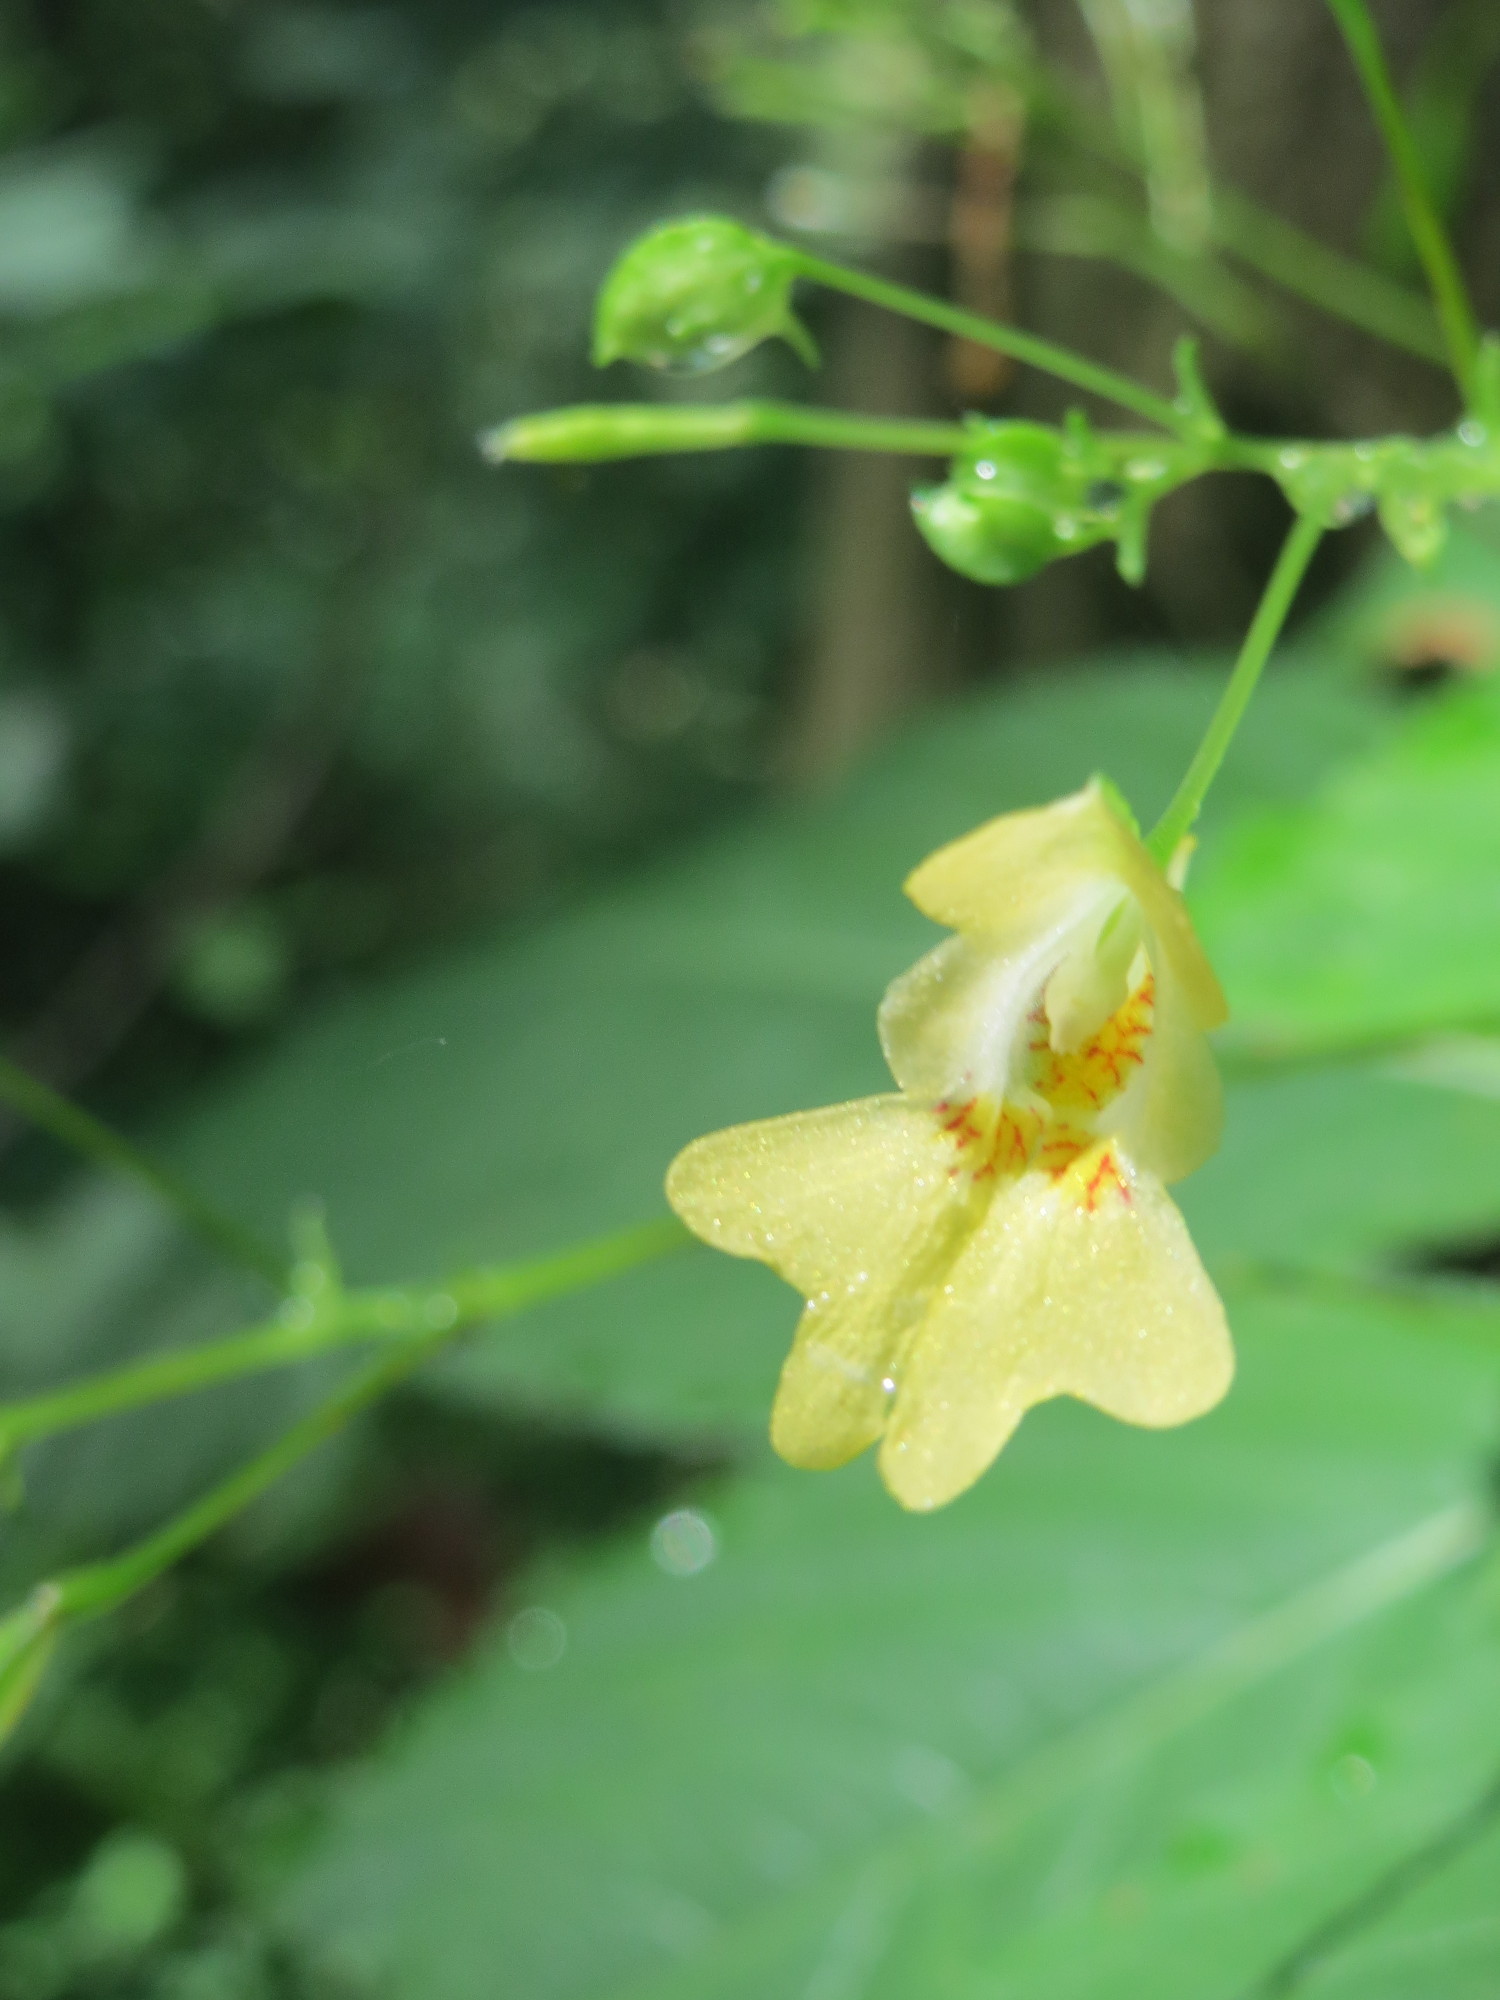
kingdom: Plantae
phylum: Tracheophyta
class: Magnoliopsida
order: Ericales
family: Balsaminaceae
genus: Impatiens
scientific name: Impatiens parviflora
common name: Small balsam
